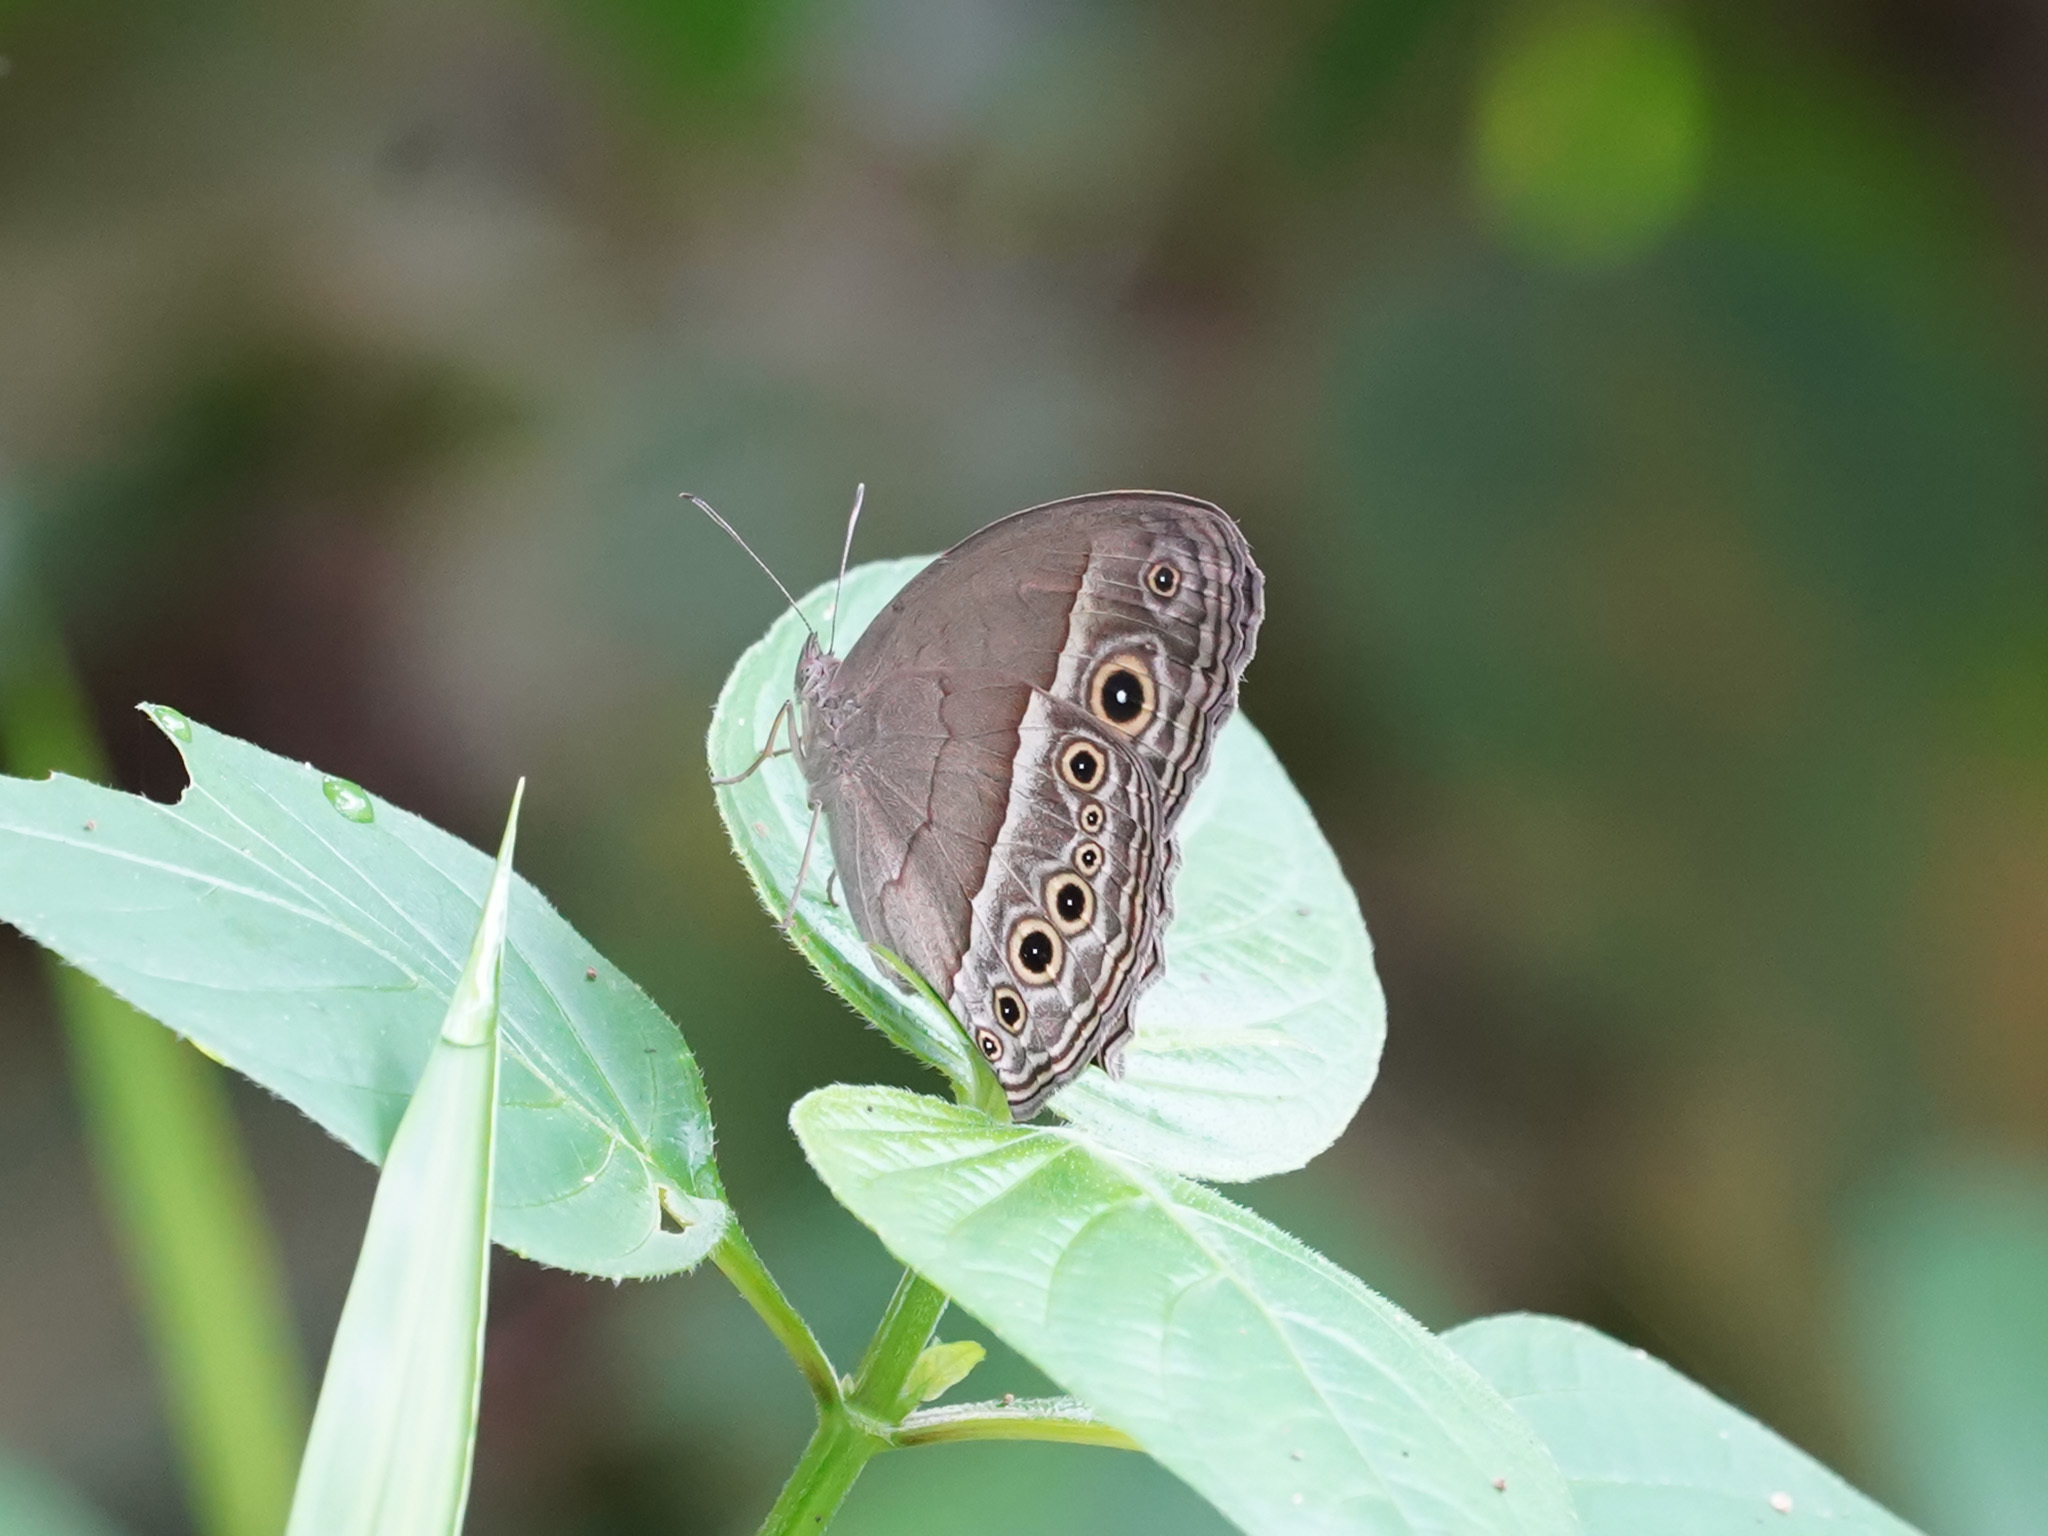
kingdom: Animalia
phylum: Arthropoda
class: Insecta
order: Lepidoptera
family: Nymphalidae
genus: Mycalesis
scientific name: Mycalesis perseoides
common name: Burmese bushbrown
